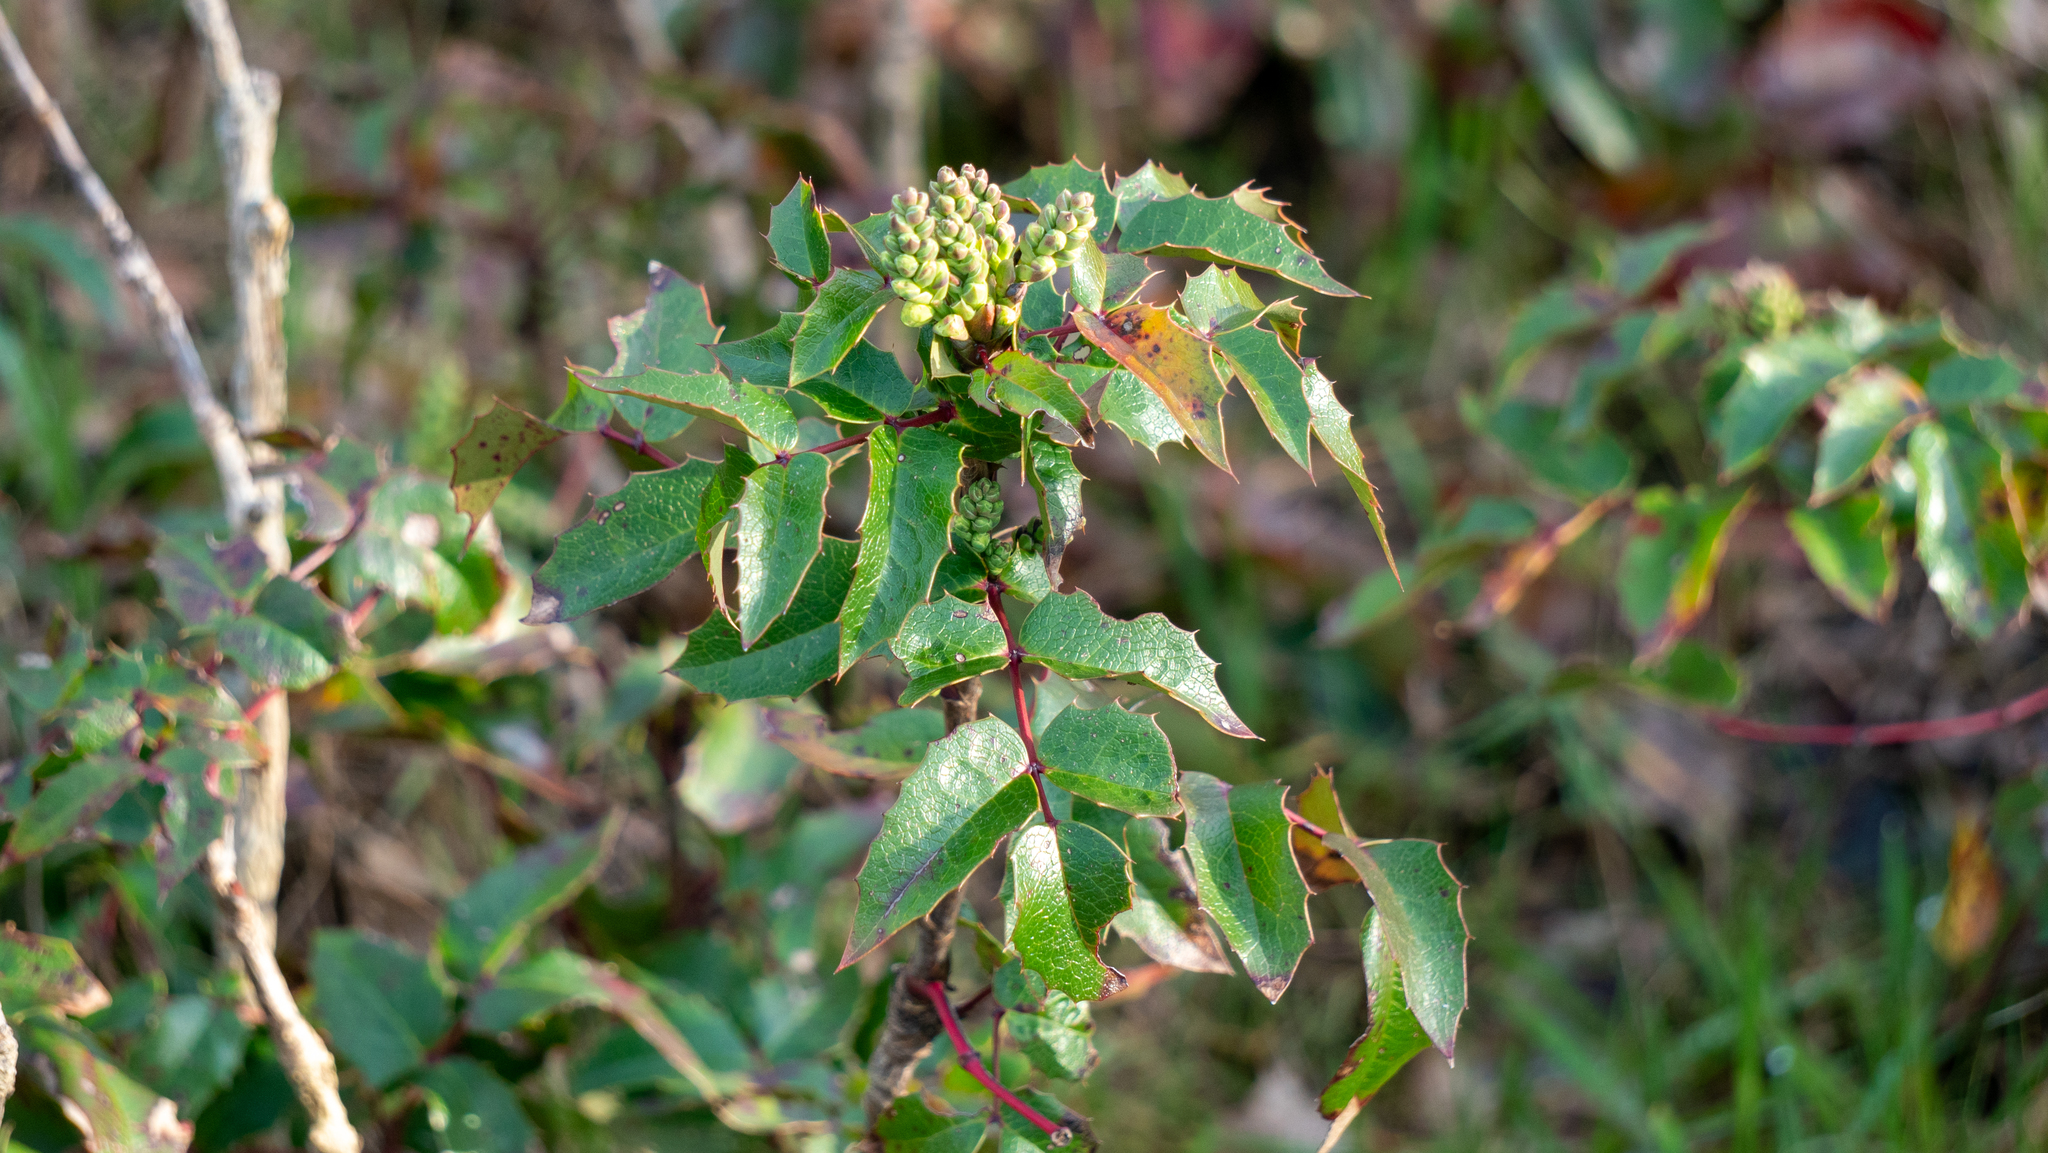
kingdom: Plantae
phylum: Tracheophyta
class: Magnoliopsida
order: Ranunculales
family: Berberidaceae
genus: Mahonia
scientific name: Mahonia aquifolium
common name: Oregon-grape
